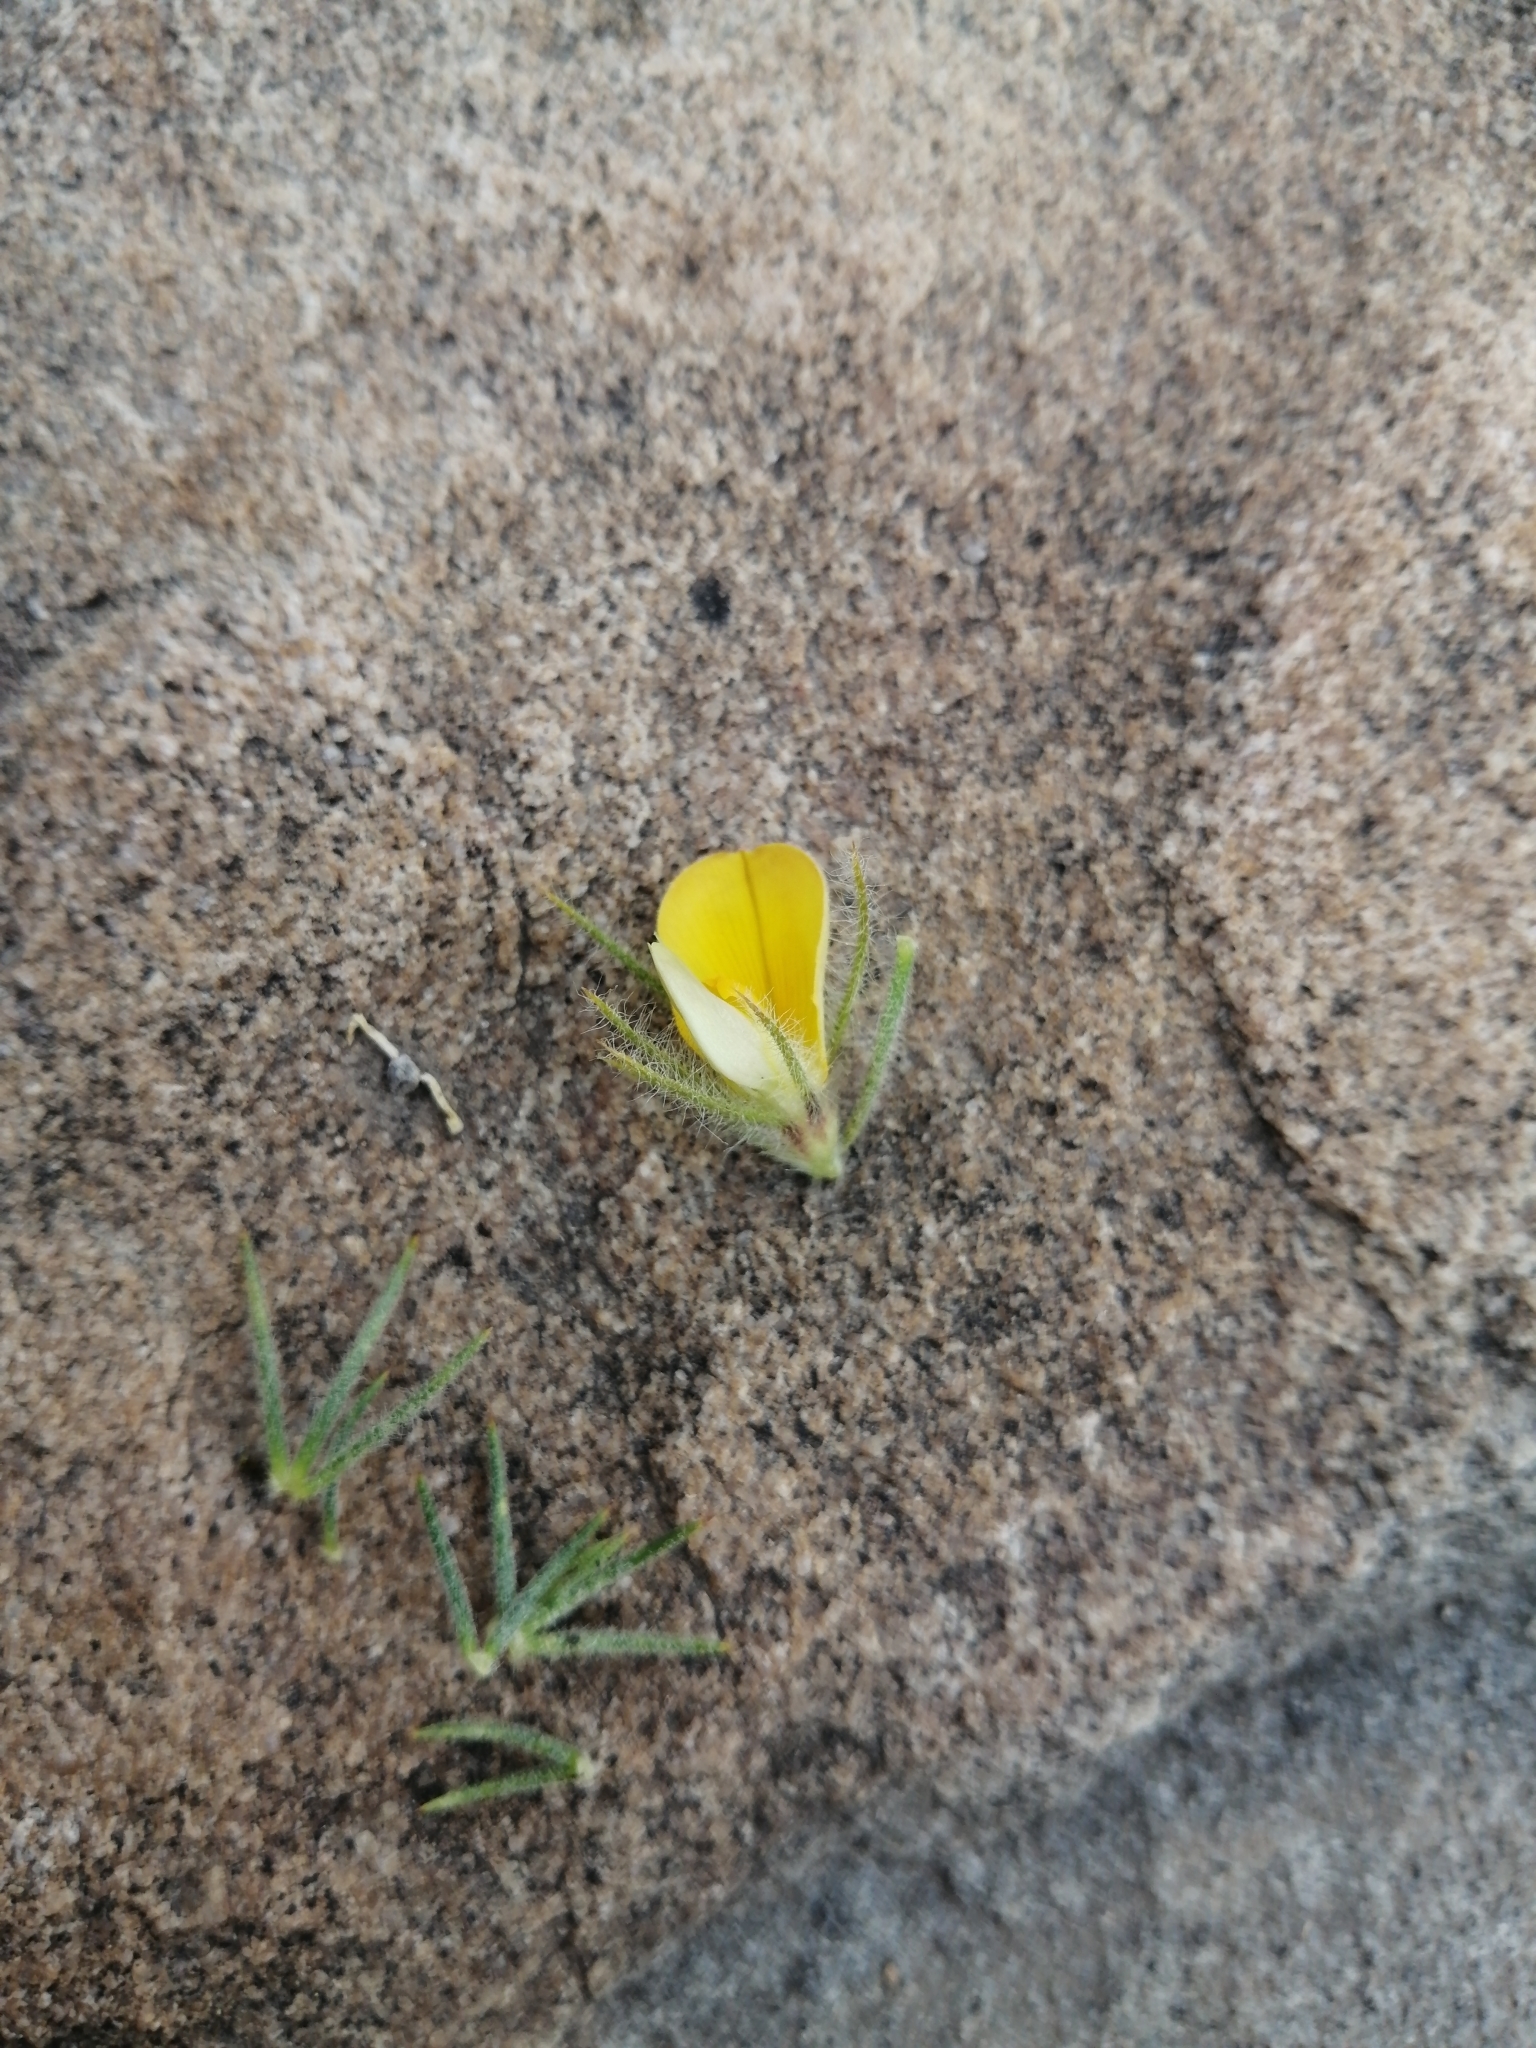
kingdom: Plantae
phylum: Tracheophyta
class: Magnoliopsida
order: Fabales
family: Fabaceae
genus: Aspalathus
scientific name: Aspalathus rubiginosa
